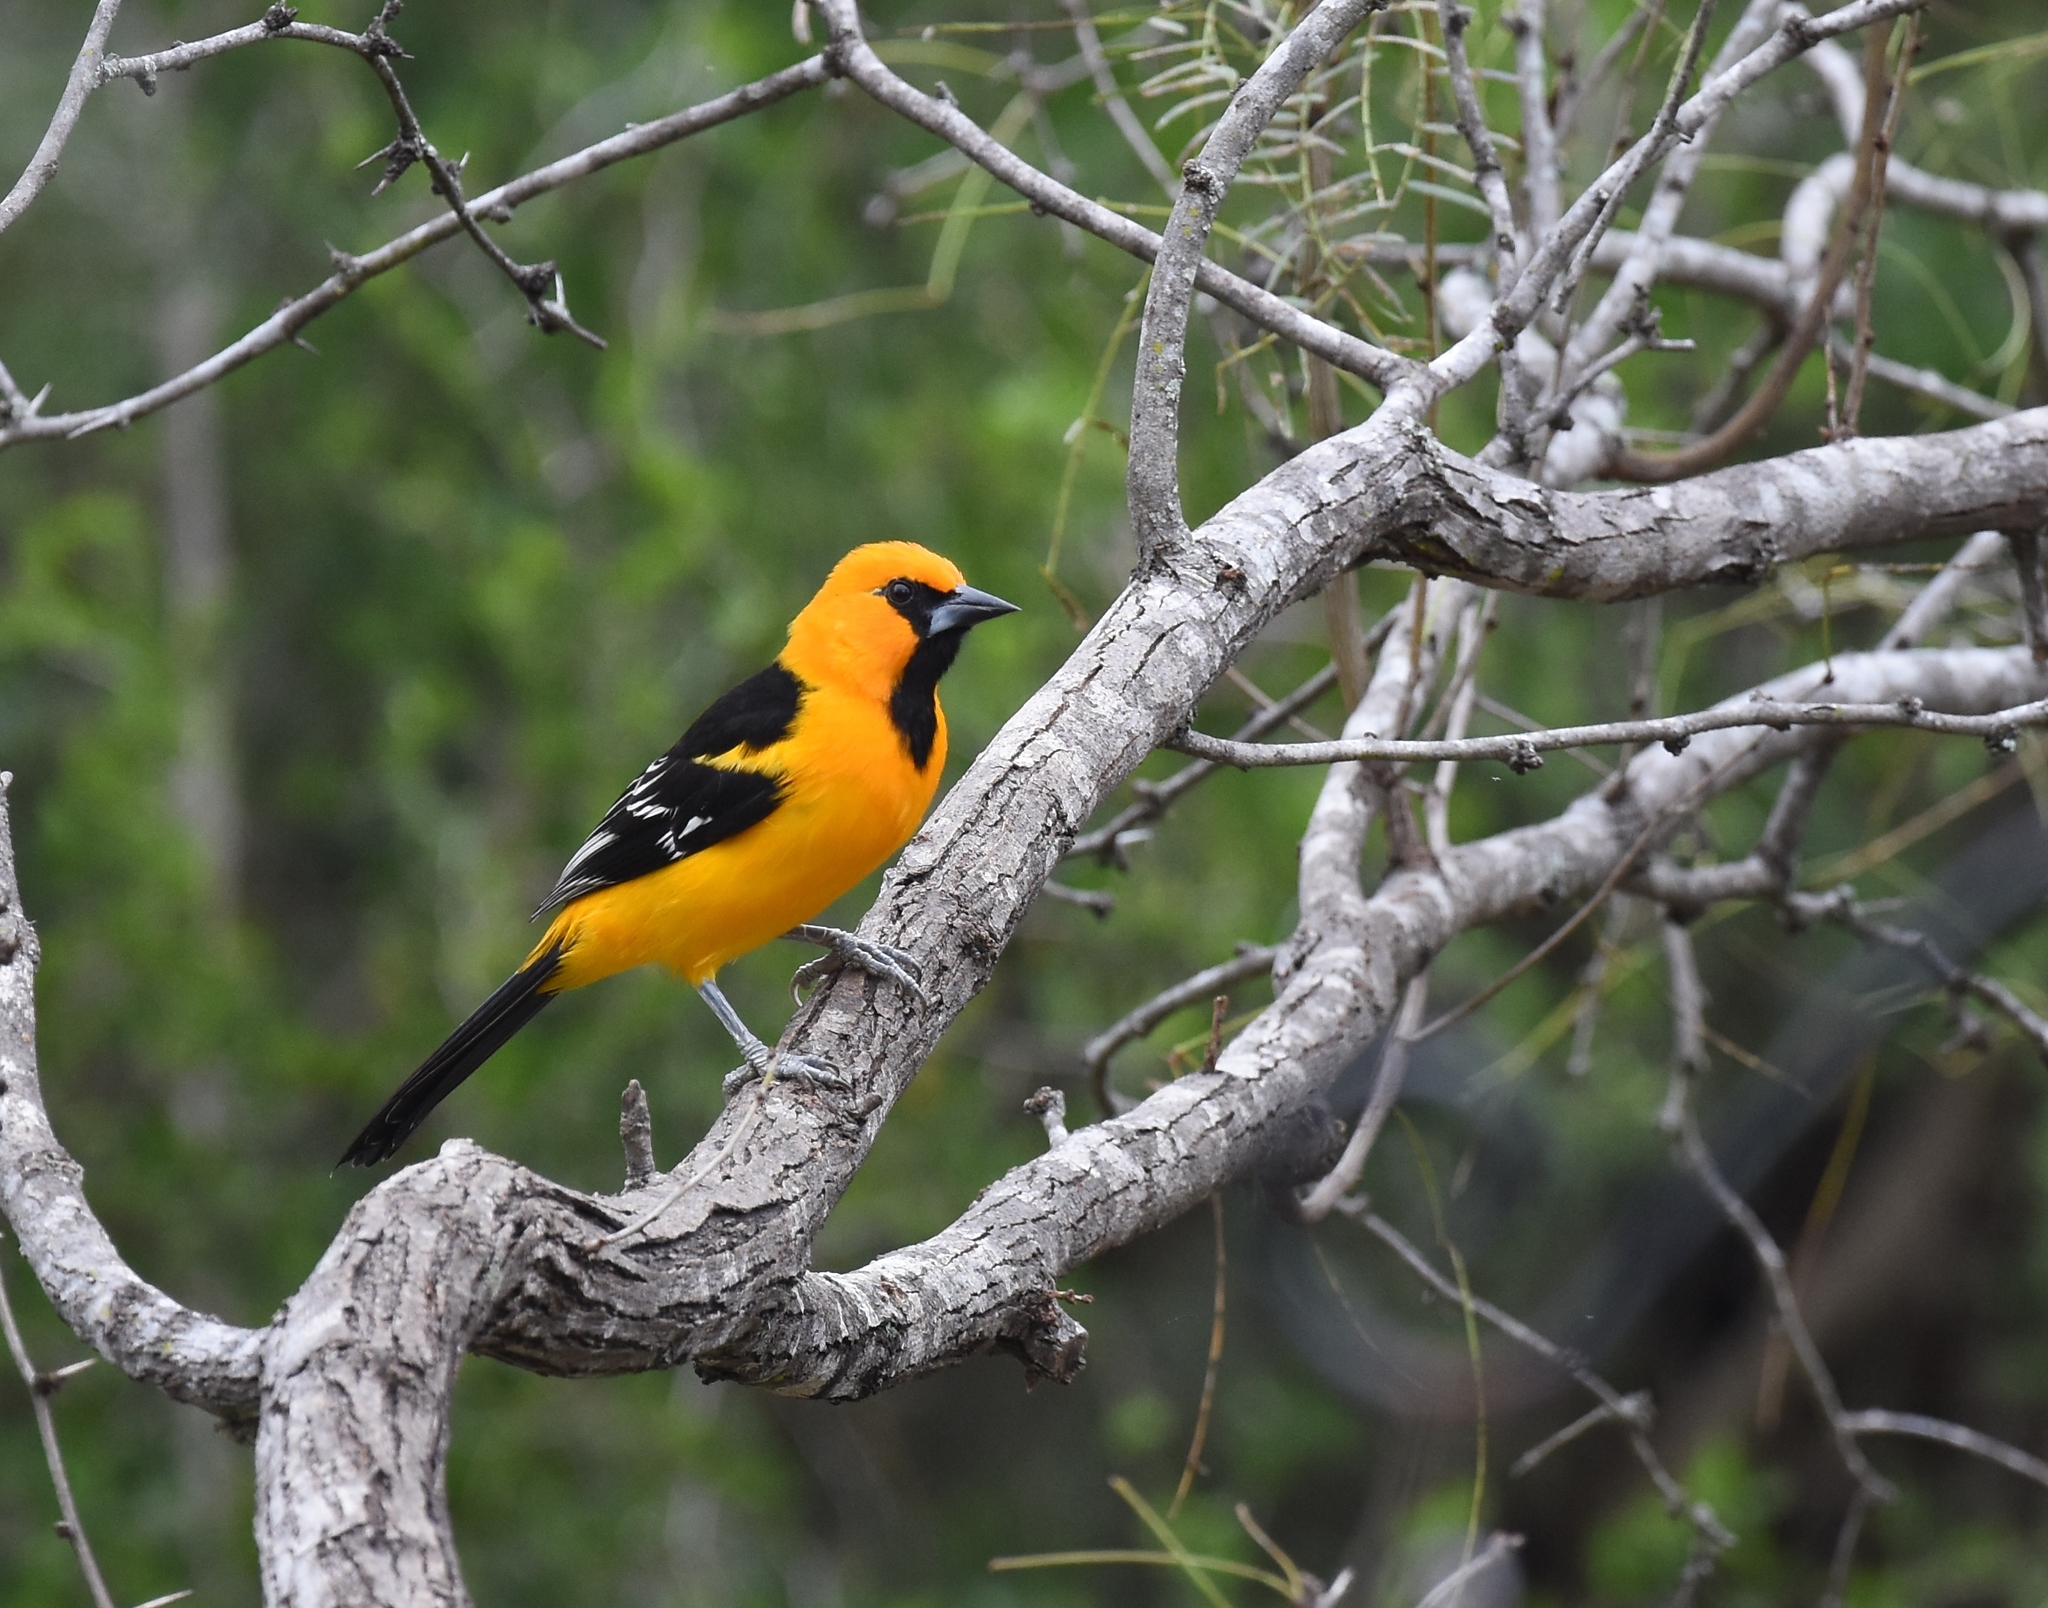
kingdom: Animalia
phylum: Chordata
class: Aves
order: Passeriformes
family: Icteridae
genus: Icterus
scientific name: Icterus gularis
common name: Altamira oriole
